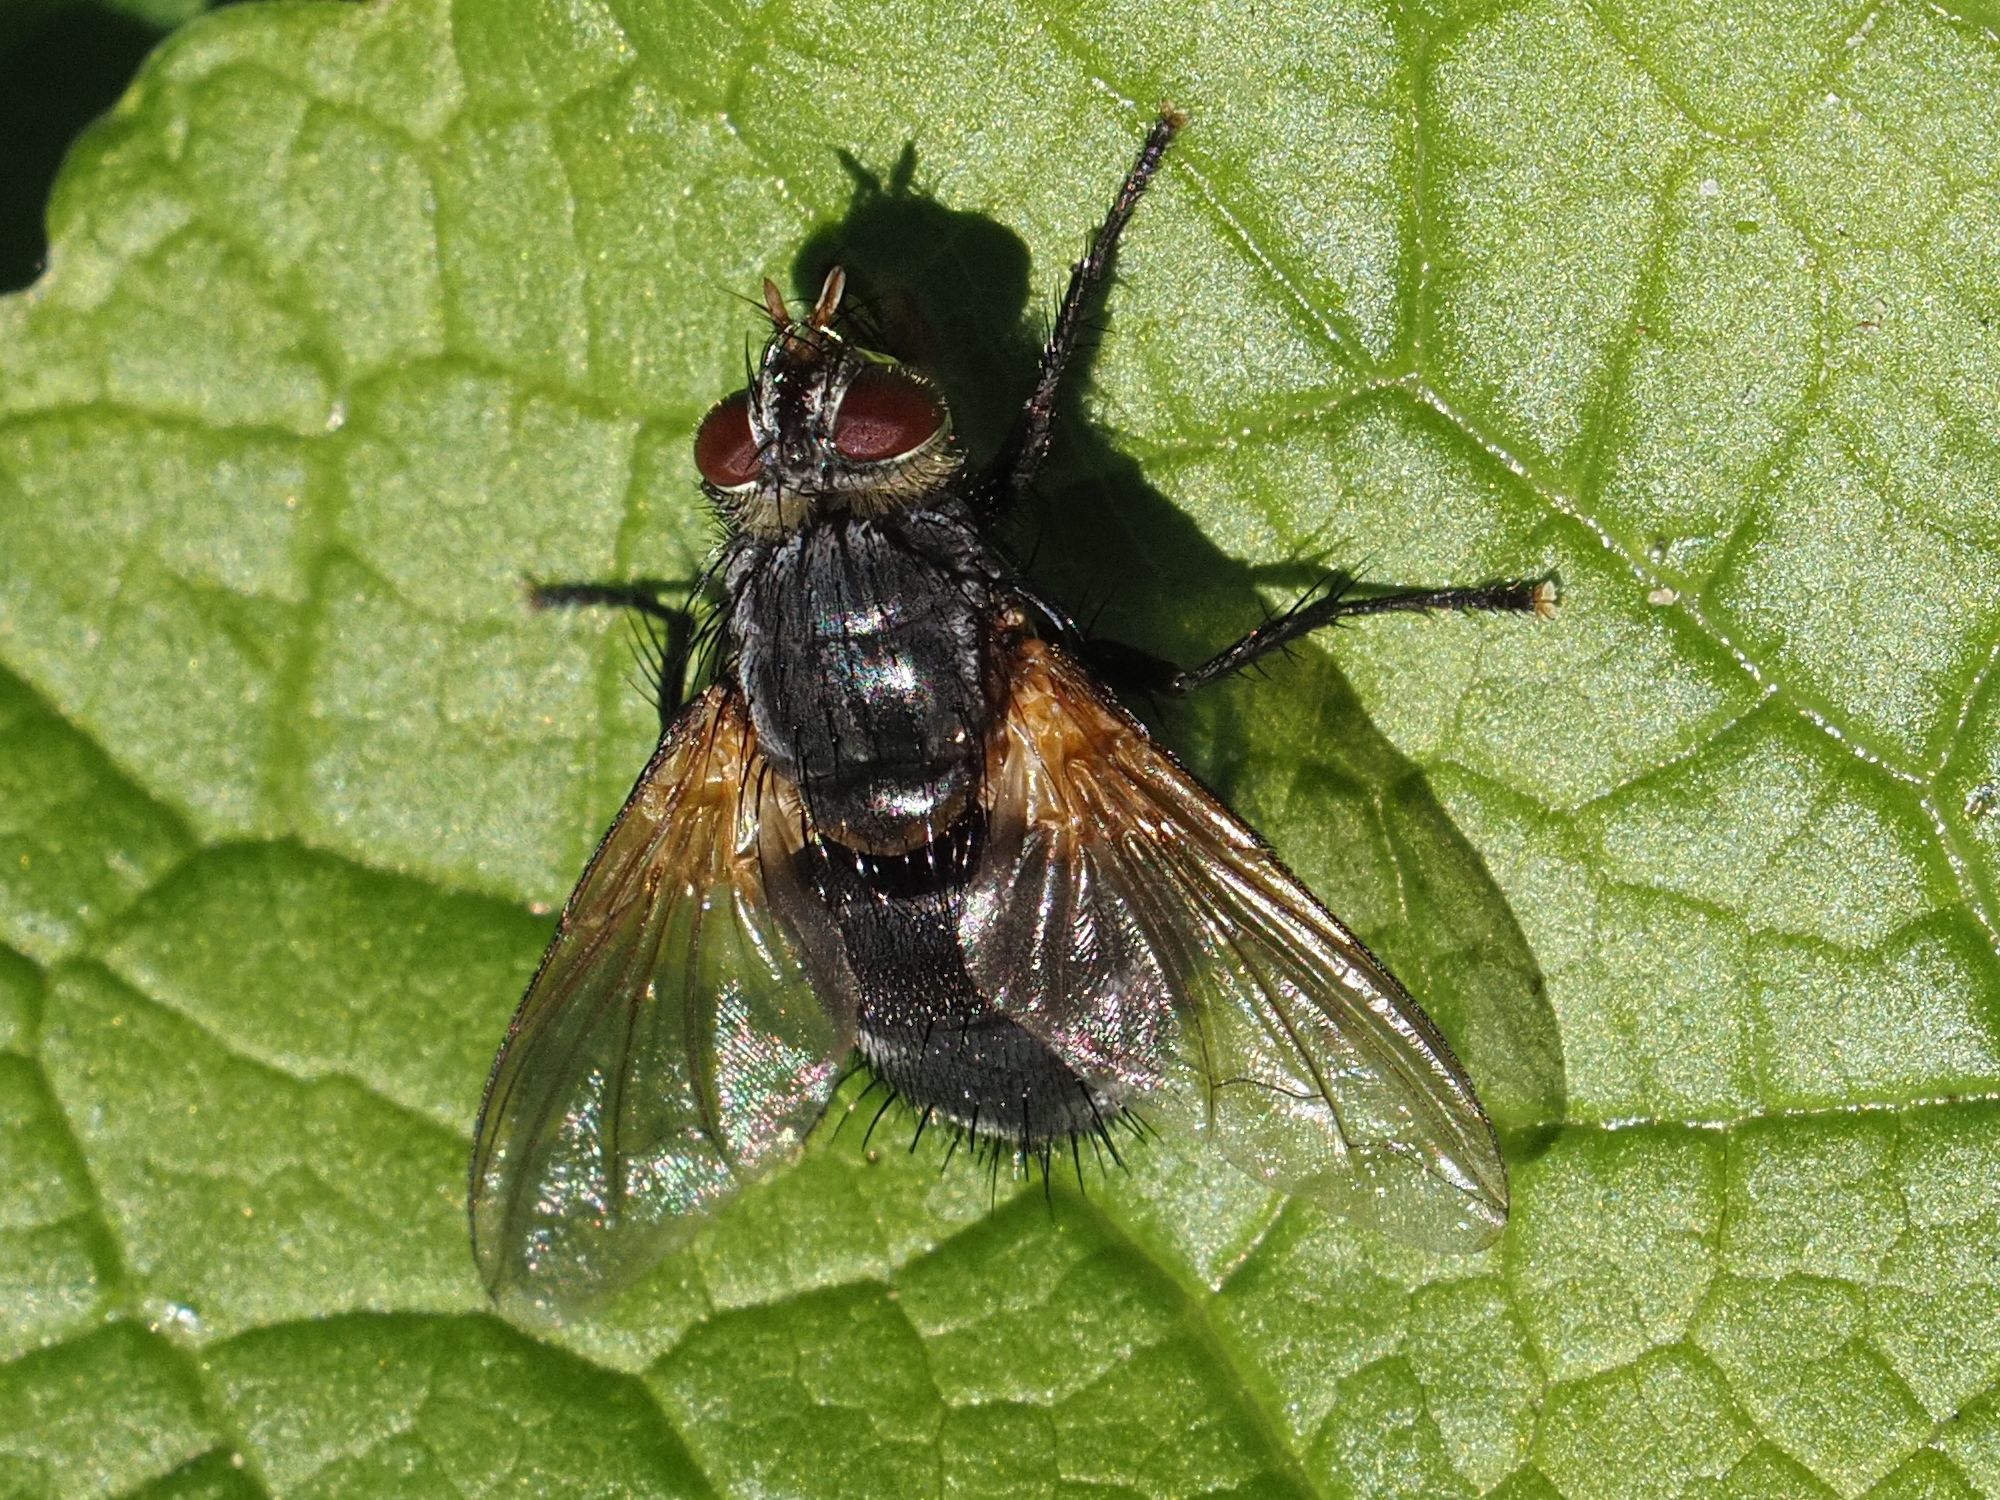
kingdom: Animalia
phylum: Arthropoda
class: Insecta
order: Diptera
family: Tachinidae
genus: Nemoraea
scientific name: Nemoraea pellucida
